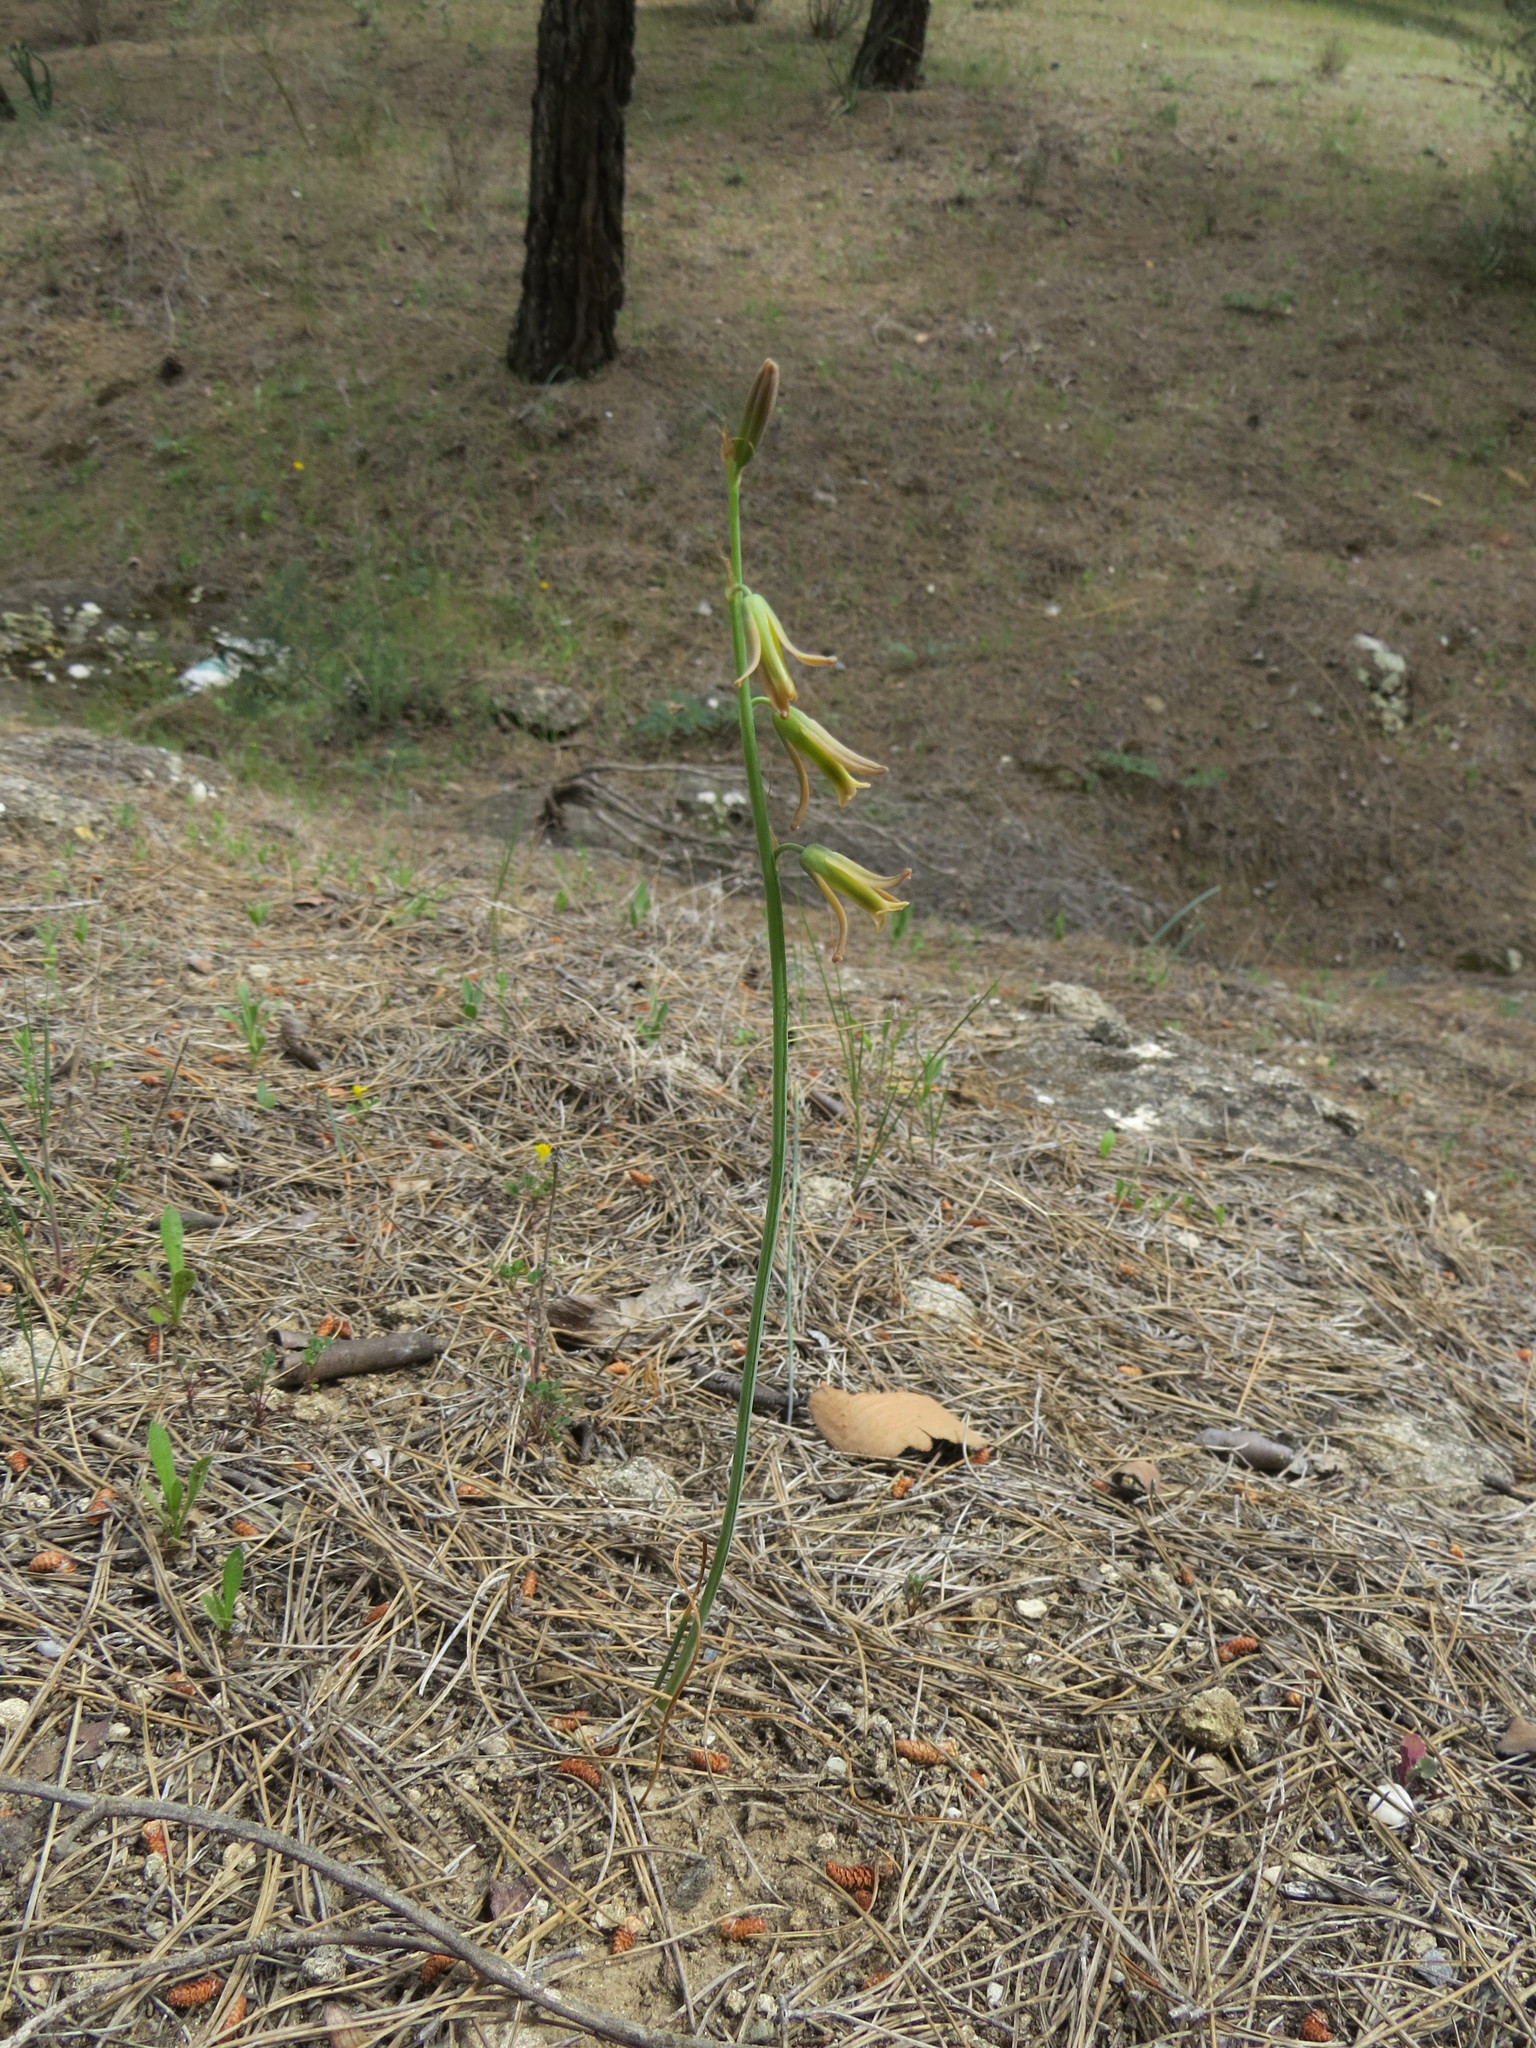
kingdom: Plantae
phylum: Tracheophyta
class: Liliopsida
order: Asparagales
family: Asparagaceae
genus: Dipcadi
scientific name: Dipcadi serotinum
